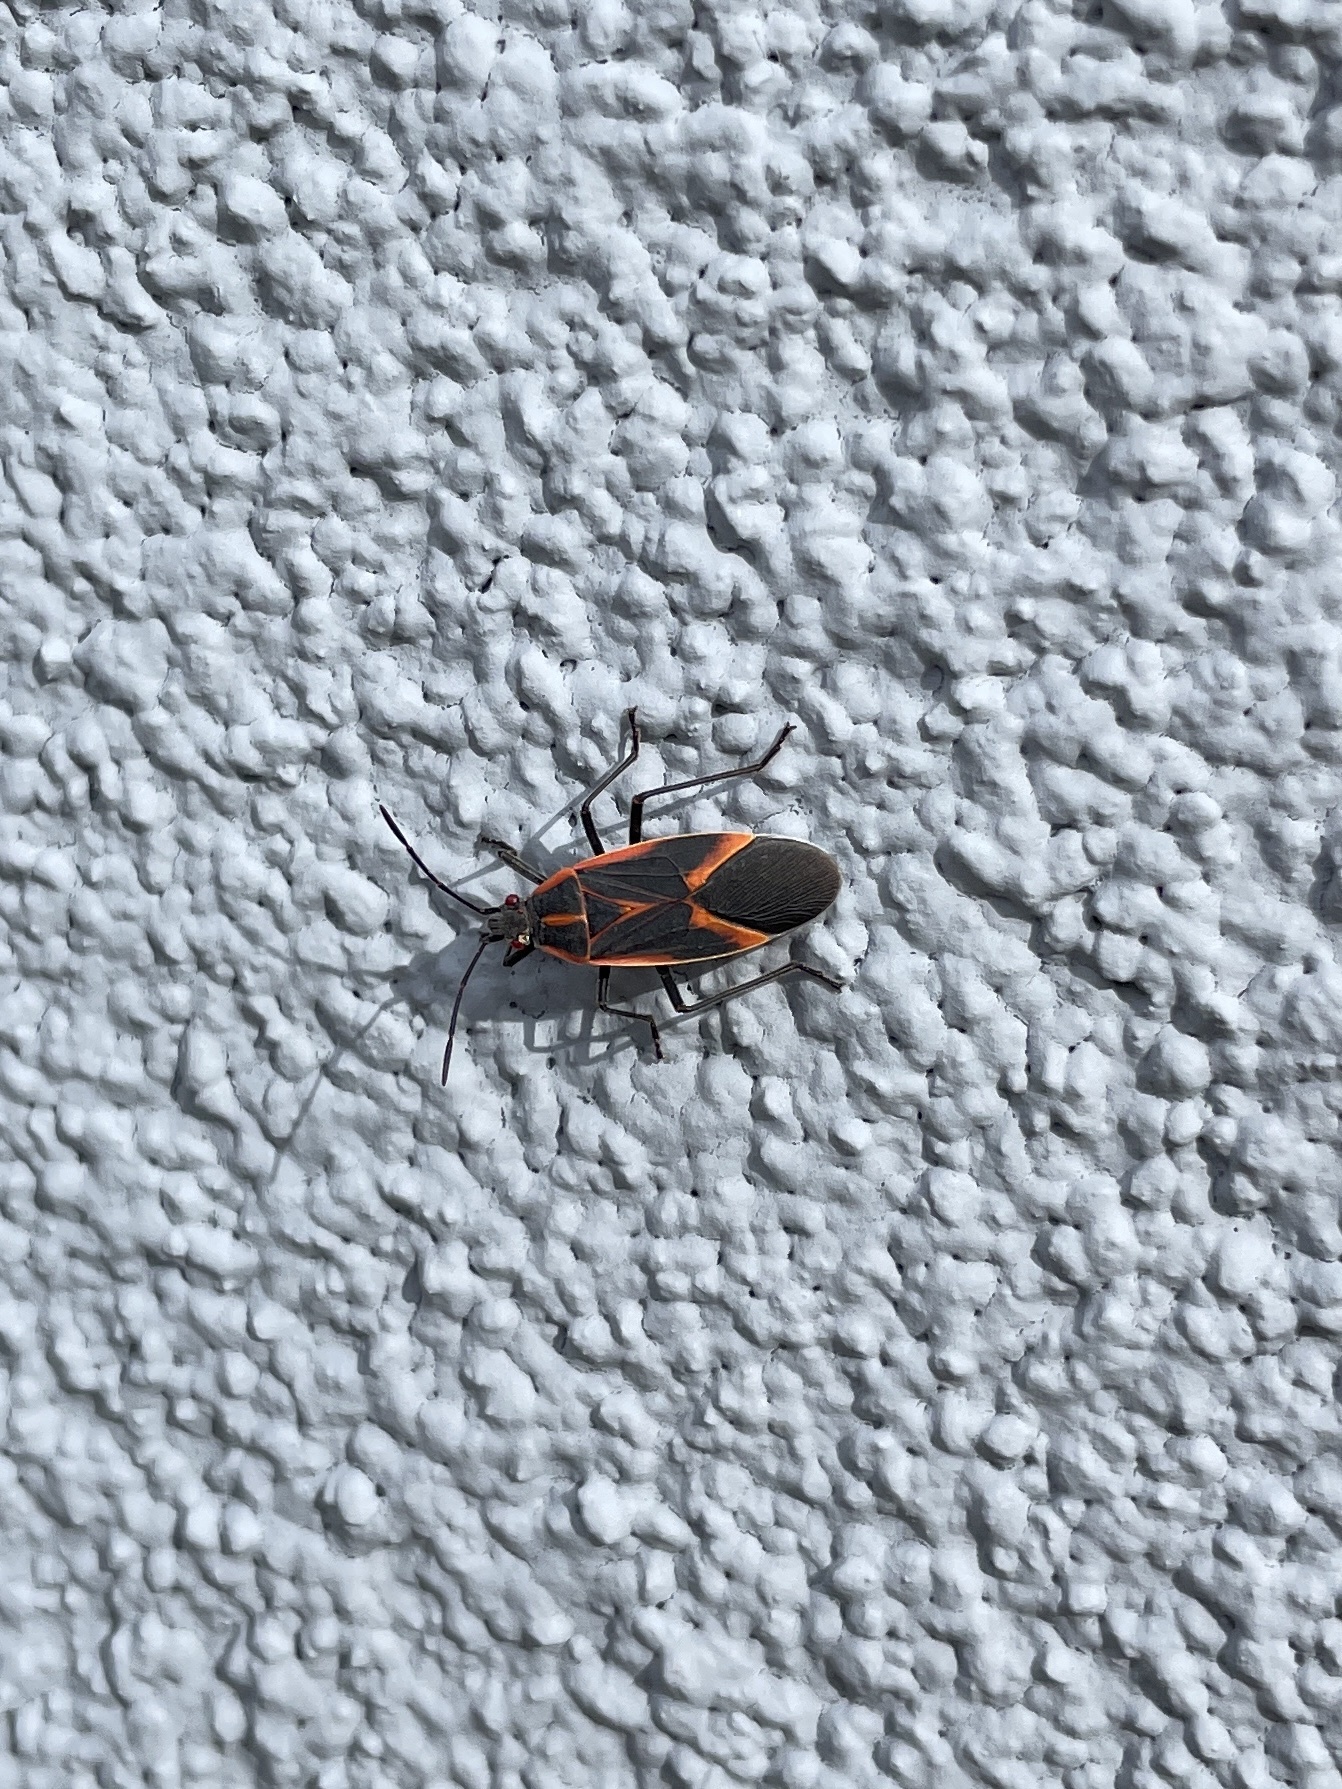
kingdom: Animalia
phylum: Arthropoda
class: Insecta
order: Hemiptera
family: Rhopalidae
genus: Boisea
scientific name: Boisea trivittata
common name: Boxelder bug
